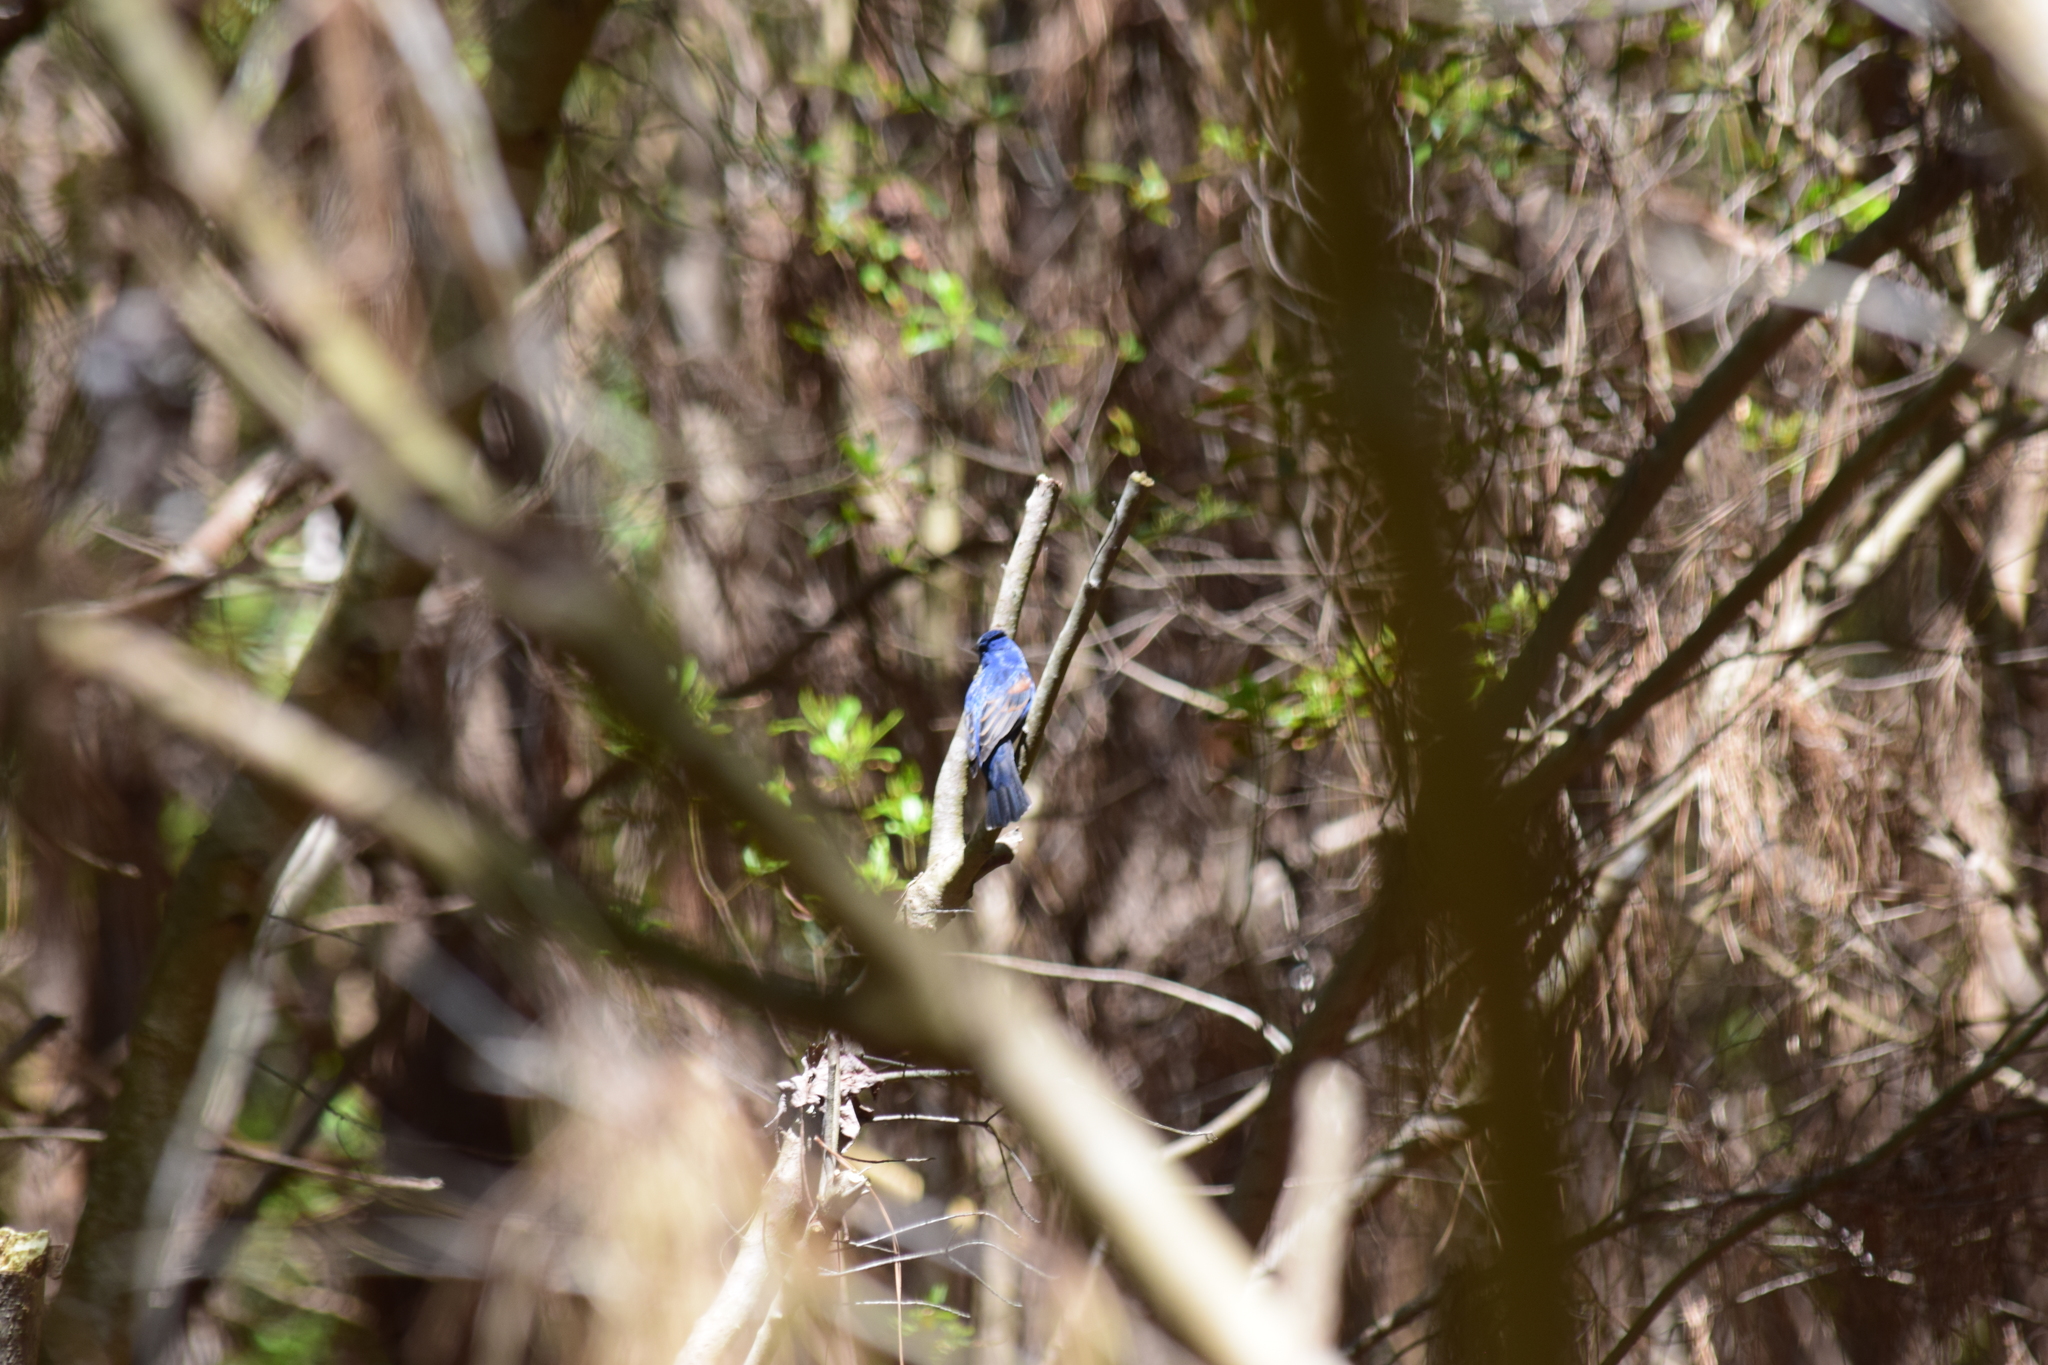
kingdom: Animalia
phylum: Chordata
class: Aves
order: Passeriformes
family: Cardinalidae
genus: Passerina
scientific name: Passerina caerulea
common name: Blue grosbeak
